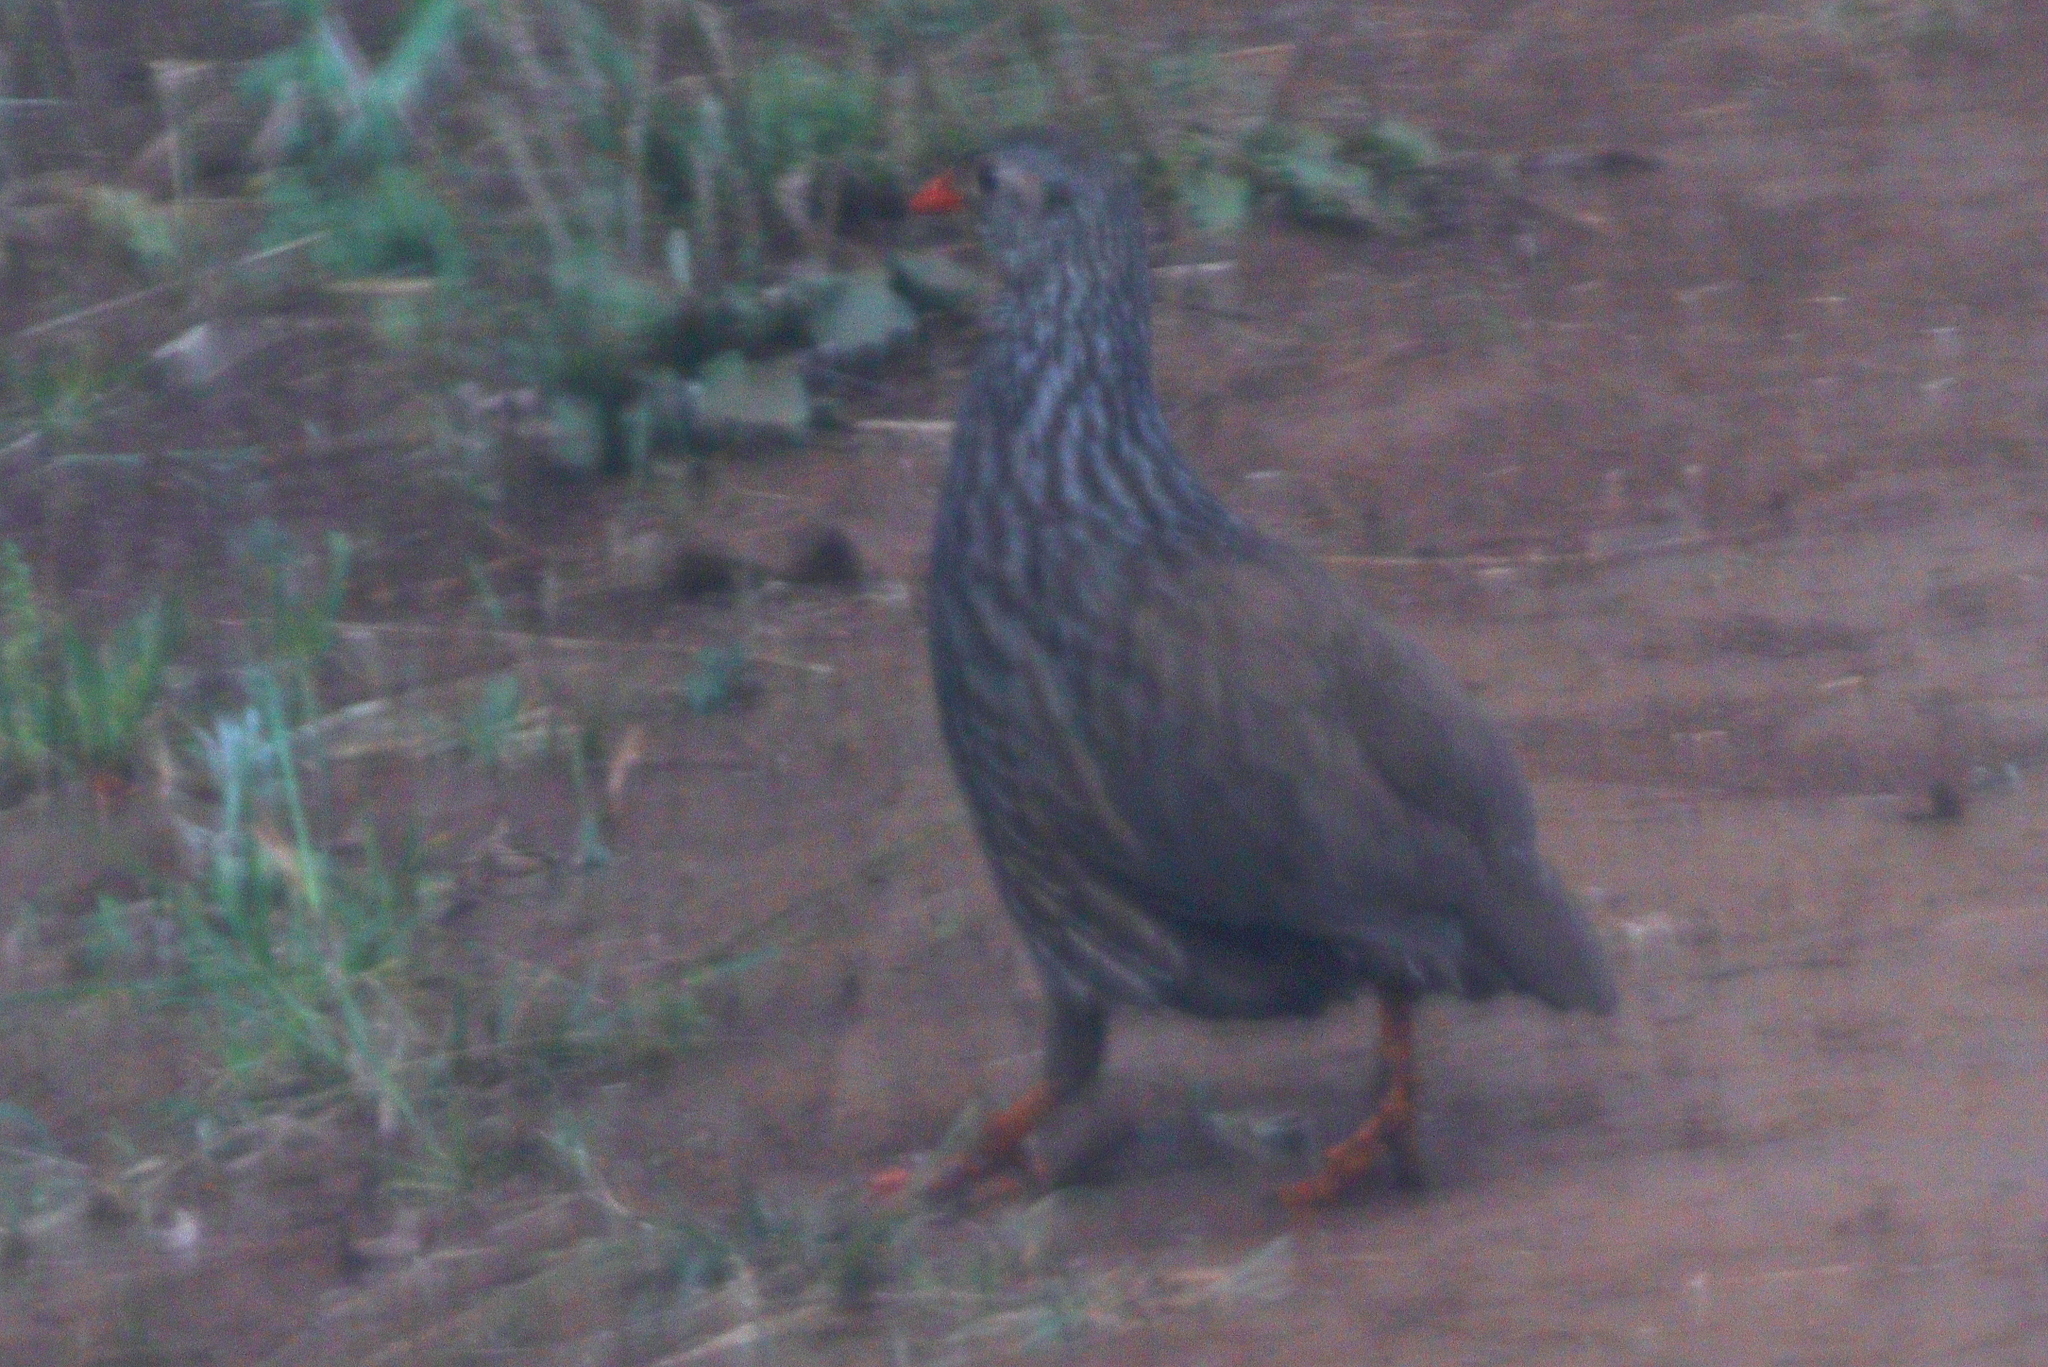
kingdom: Animalia
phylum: Chordata
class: Aves
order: Galliformes
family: Phasianidae
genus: Pternistis
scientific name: Pternistis squamatus
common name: Scaly francolin
